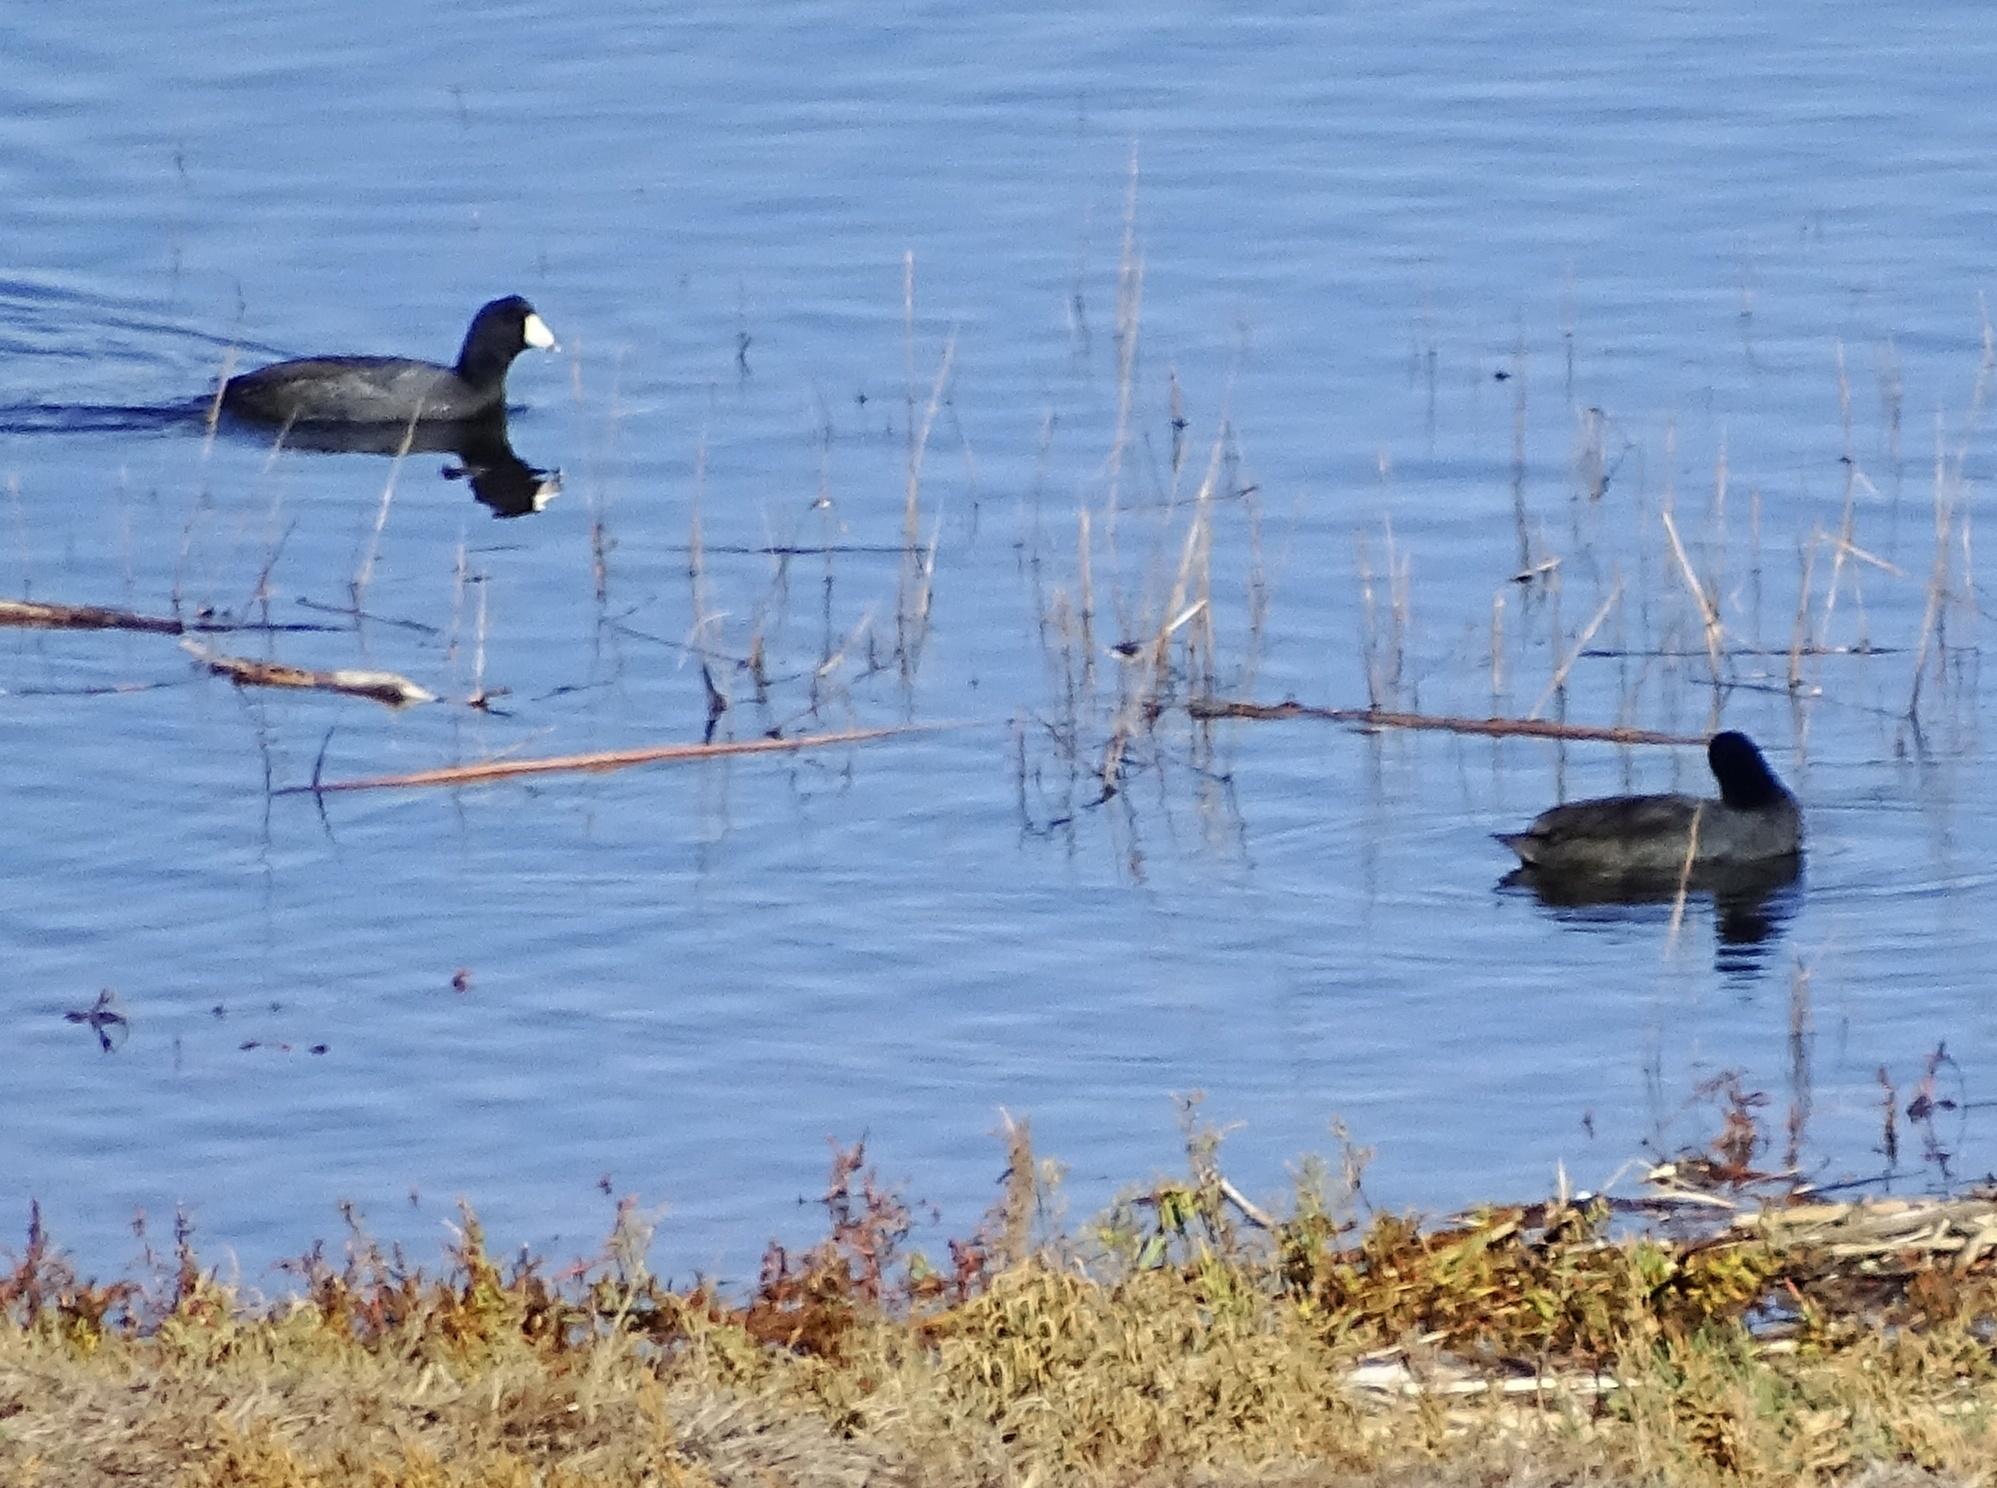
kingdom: Animalia
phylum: Chordata
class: Aves
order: Gruiformes
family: Rallidae
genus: Fulica
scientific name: Fulica americana
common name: American coot
